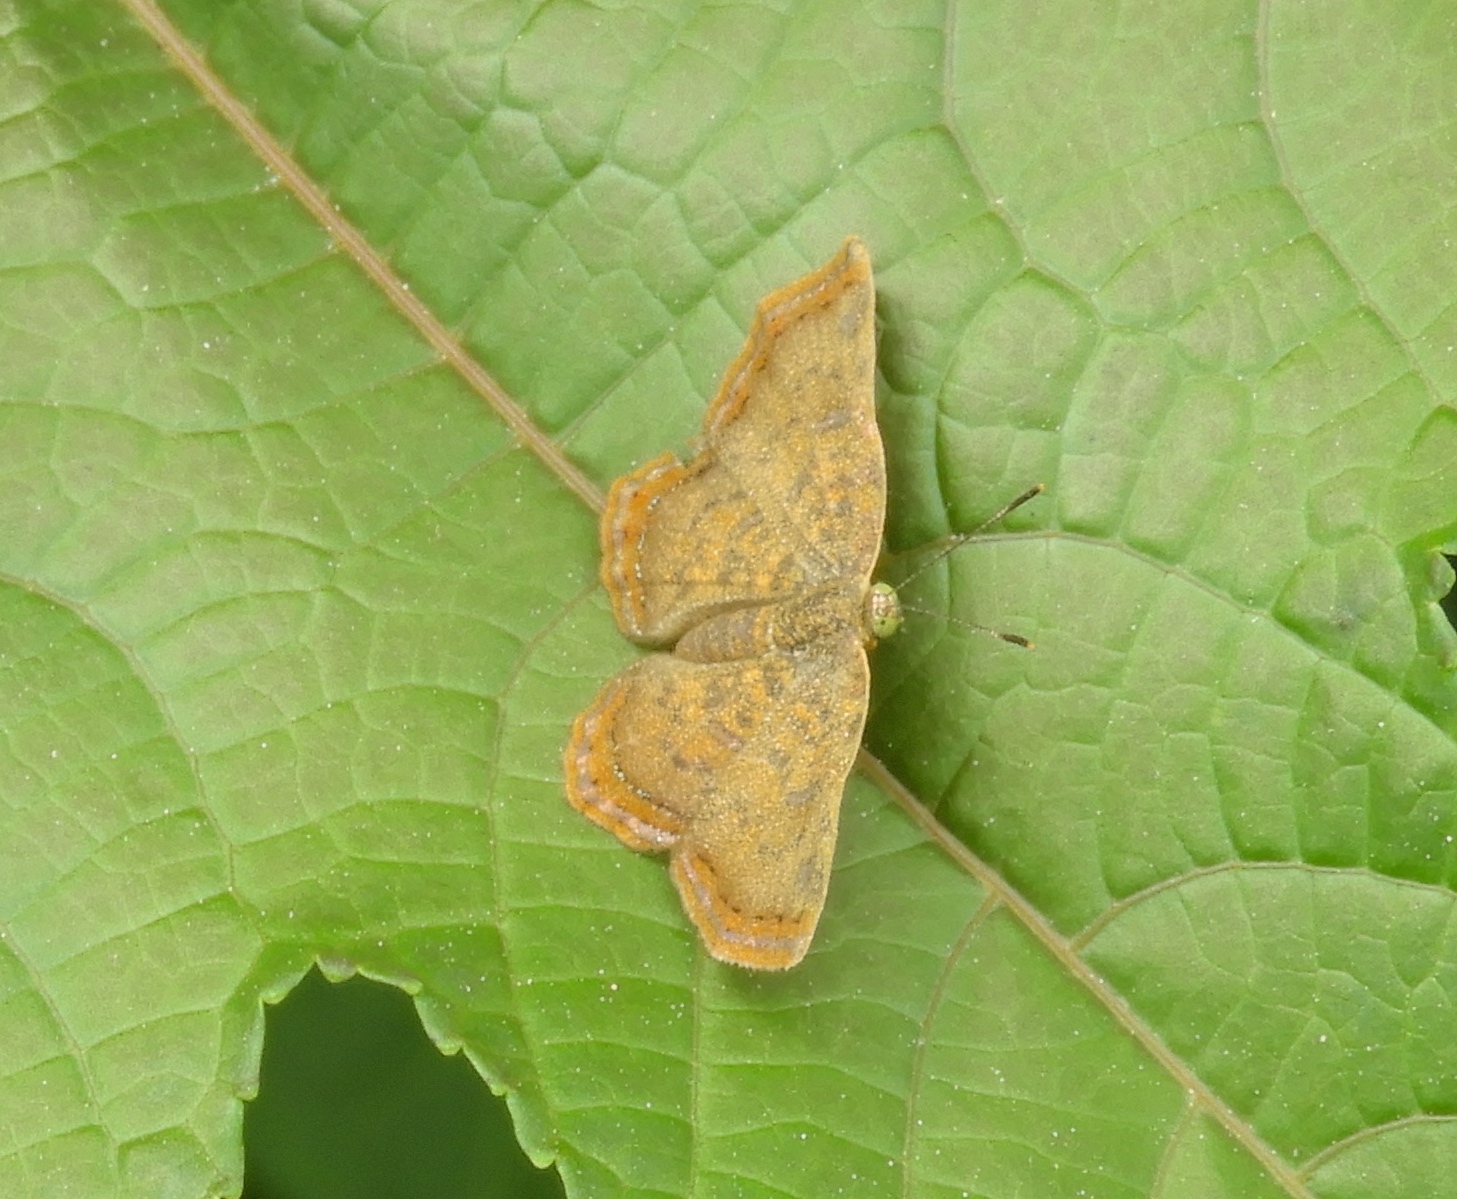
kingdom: Animalia
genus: Caria
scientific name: Caria ino
